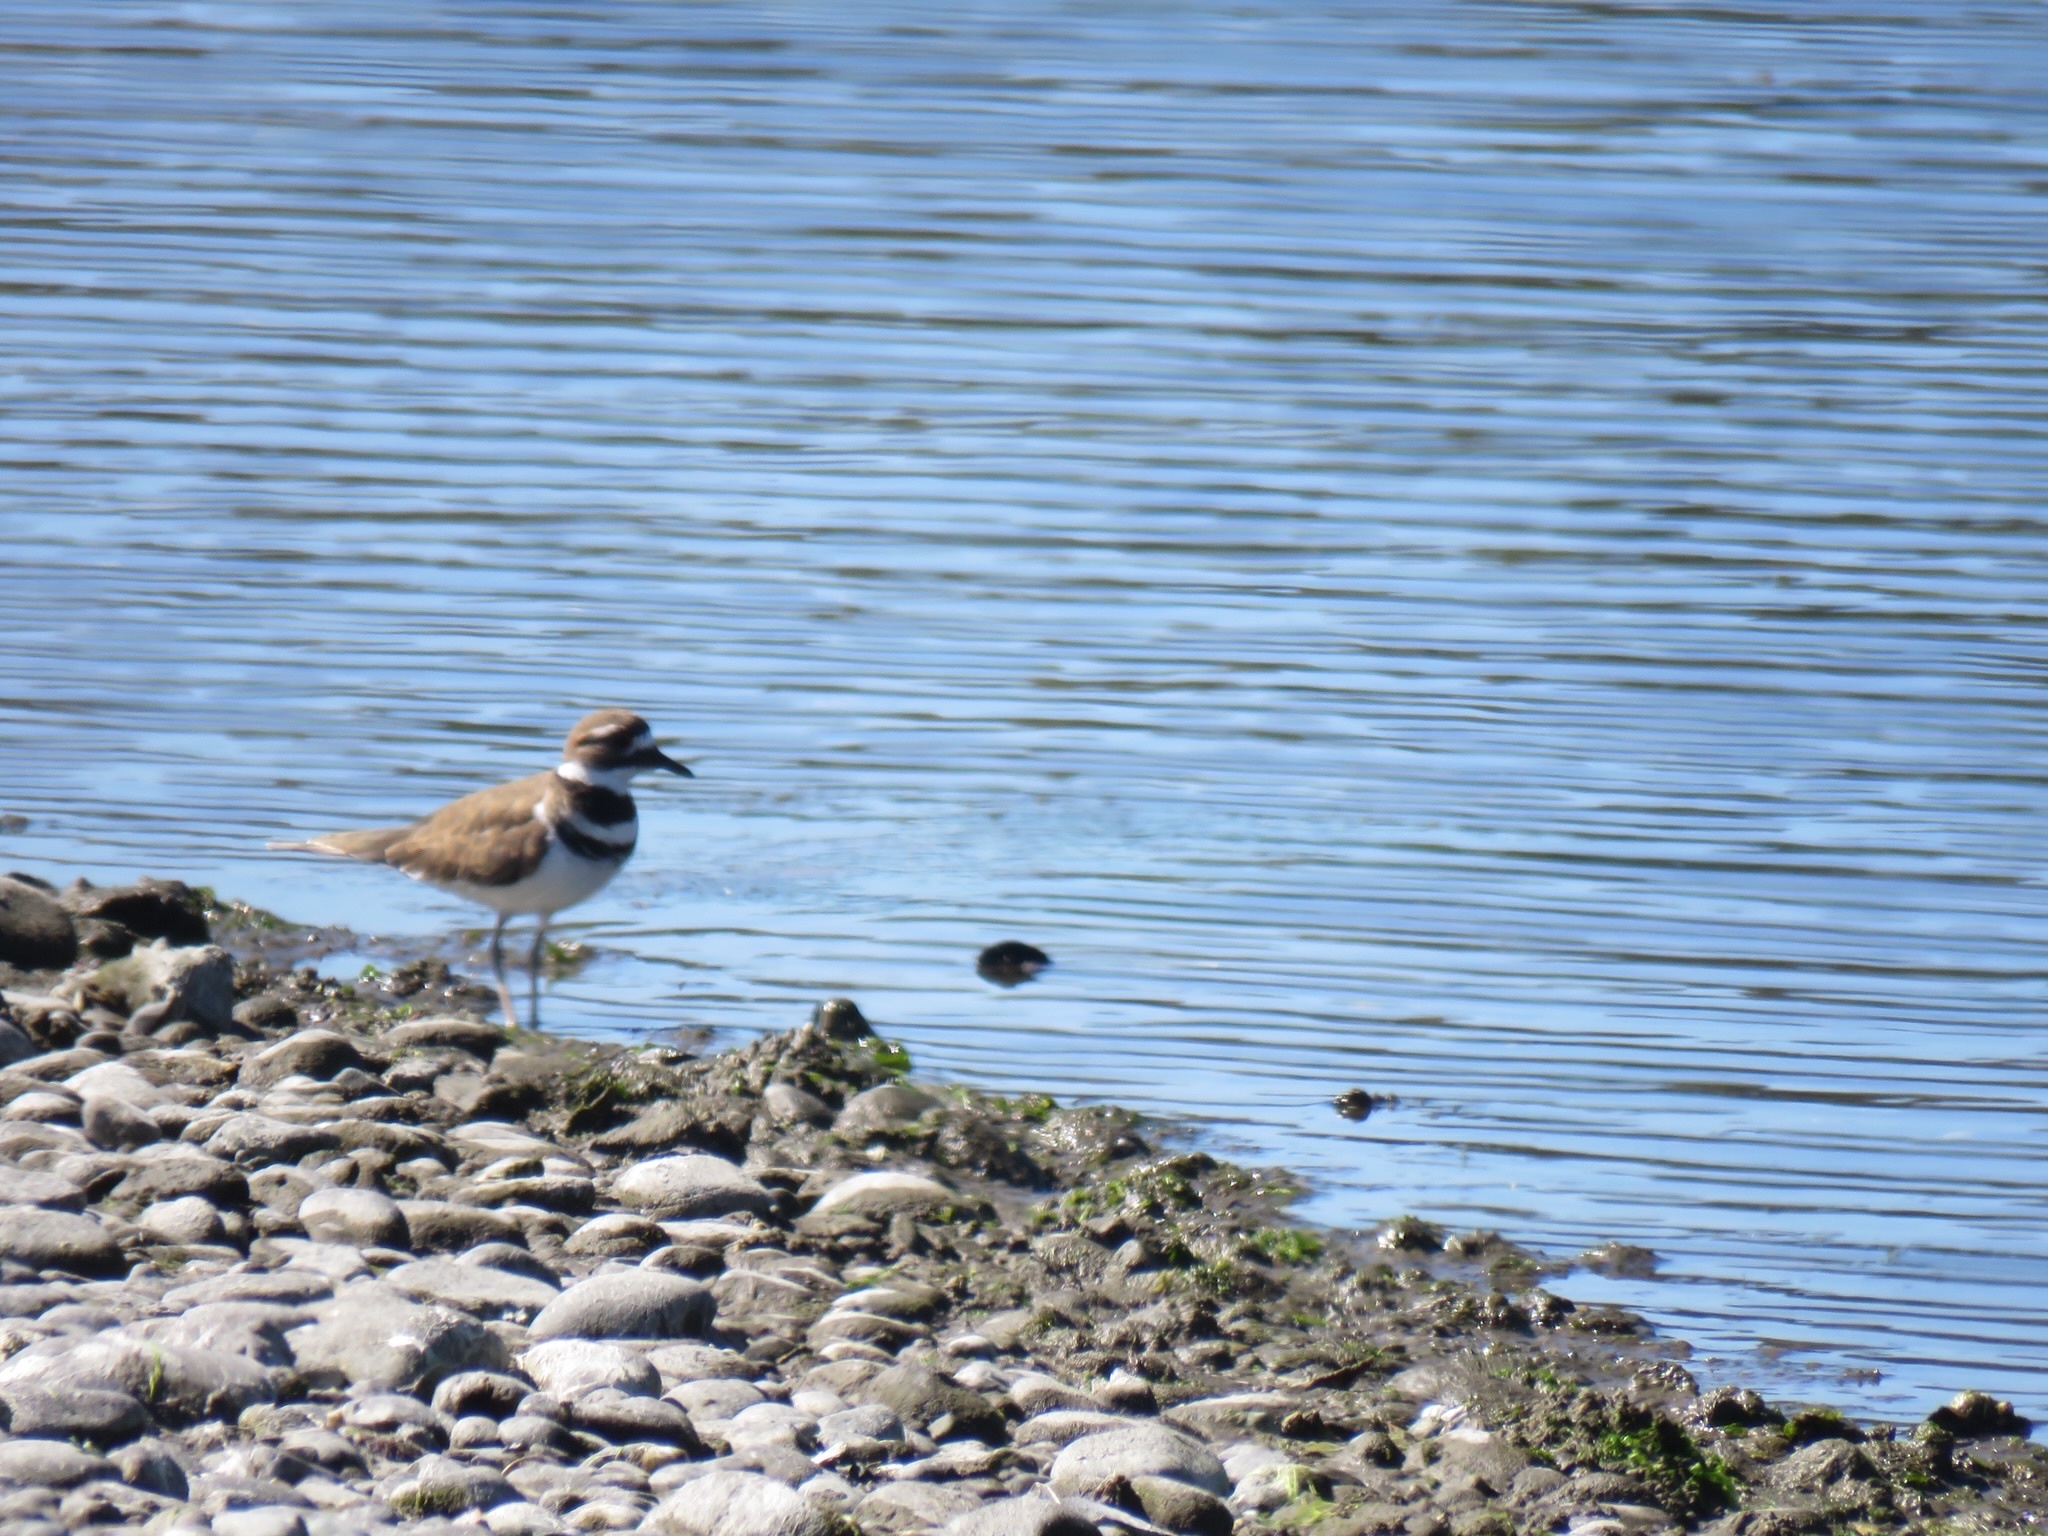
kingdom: Animalia
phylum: Chordata
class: Aves
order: Charadriiformes
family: Charadriidae
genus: Charadrius
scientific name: Charadrius vociferus
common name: Killdeer
